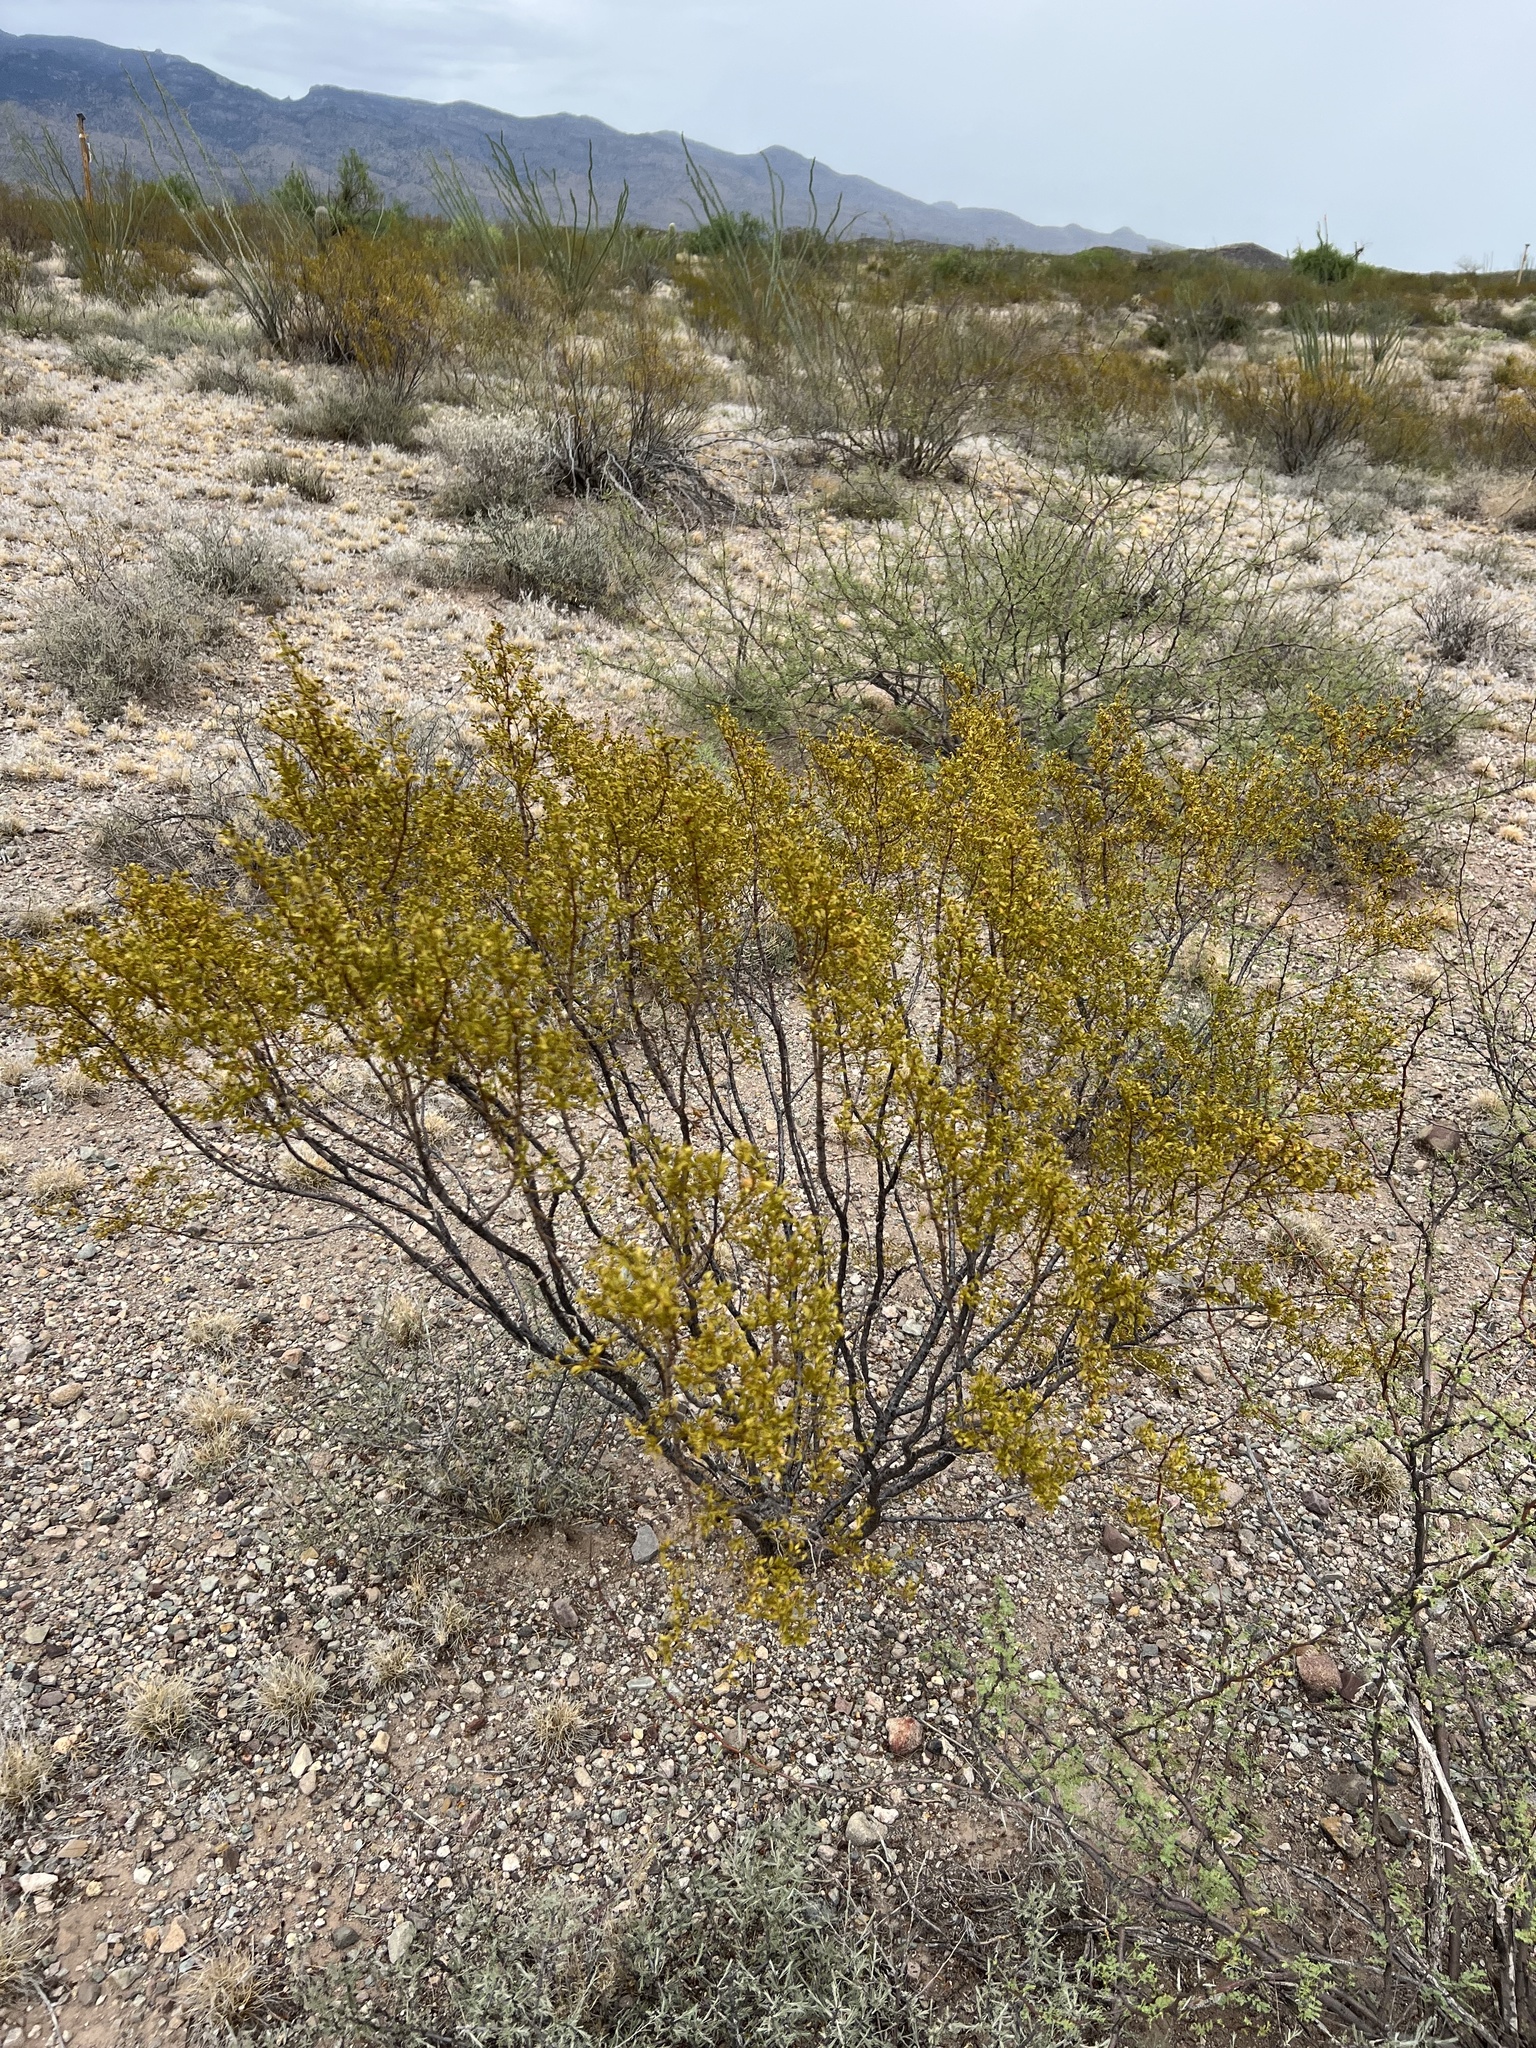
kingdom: Plantae
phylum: Tracheophyta
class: Magnoliopsida
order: Zygophyllales
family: Zygophyllaceae
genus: Larrea
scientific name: Larrea tridentata
